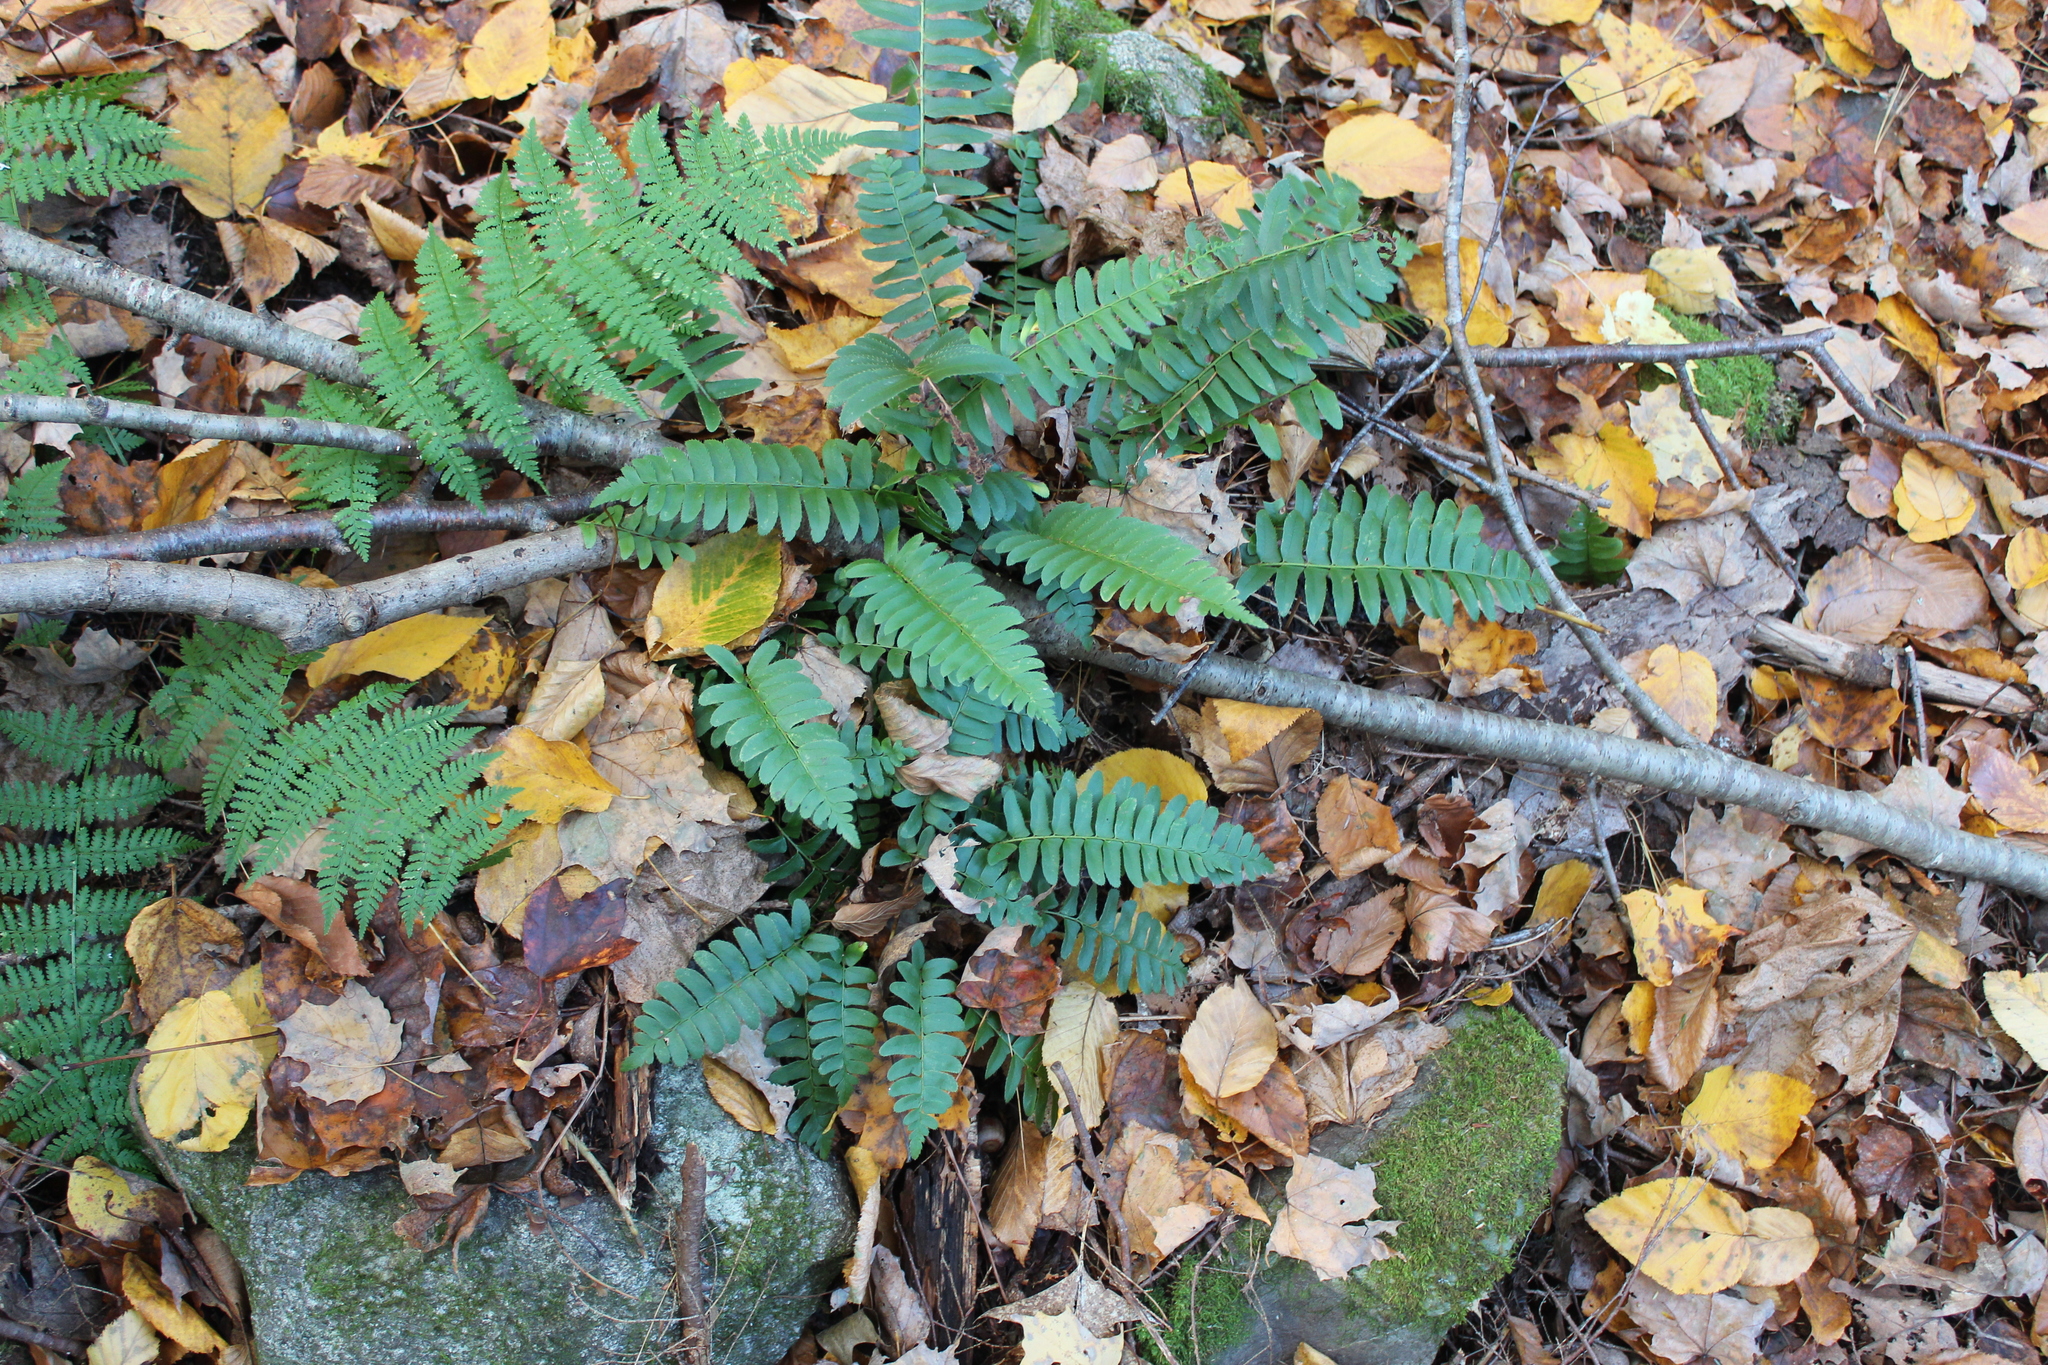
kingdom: Plantae
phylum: Tracheophyta
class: Polypodiopsida
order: Polypodiales
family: Dryopteridaceae
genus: Polystichum
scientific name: Polystichum acrostichoides
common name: Christmas fern
